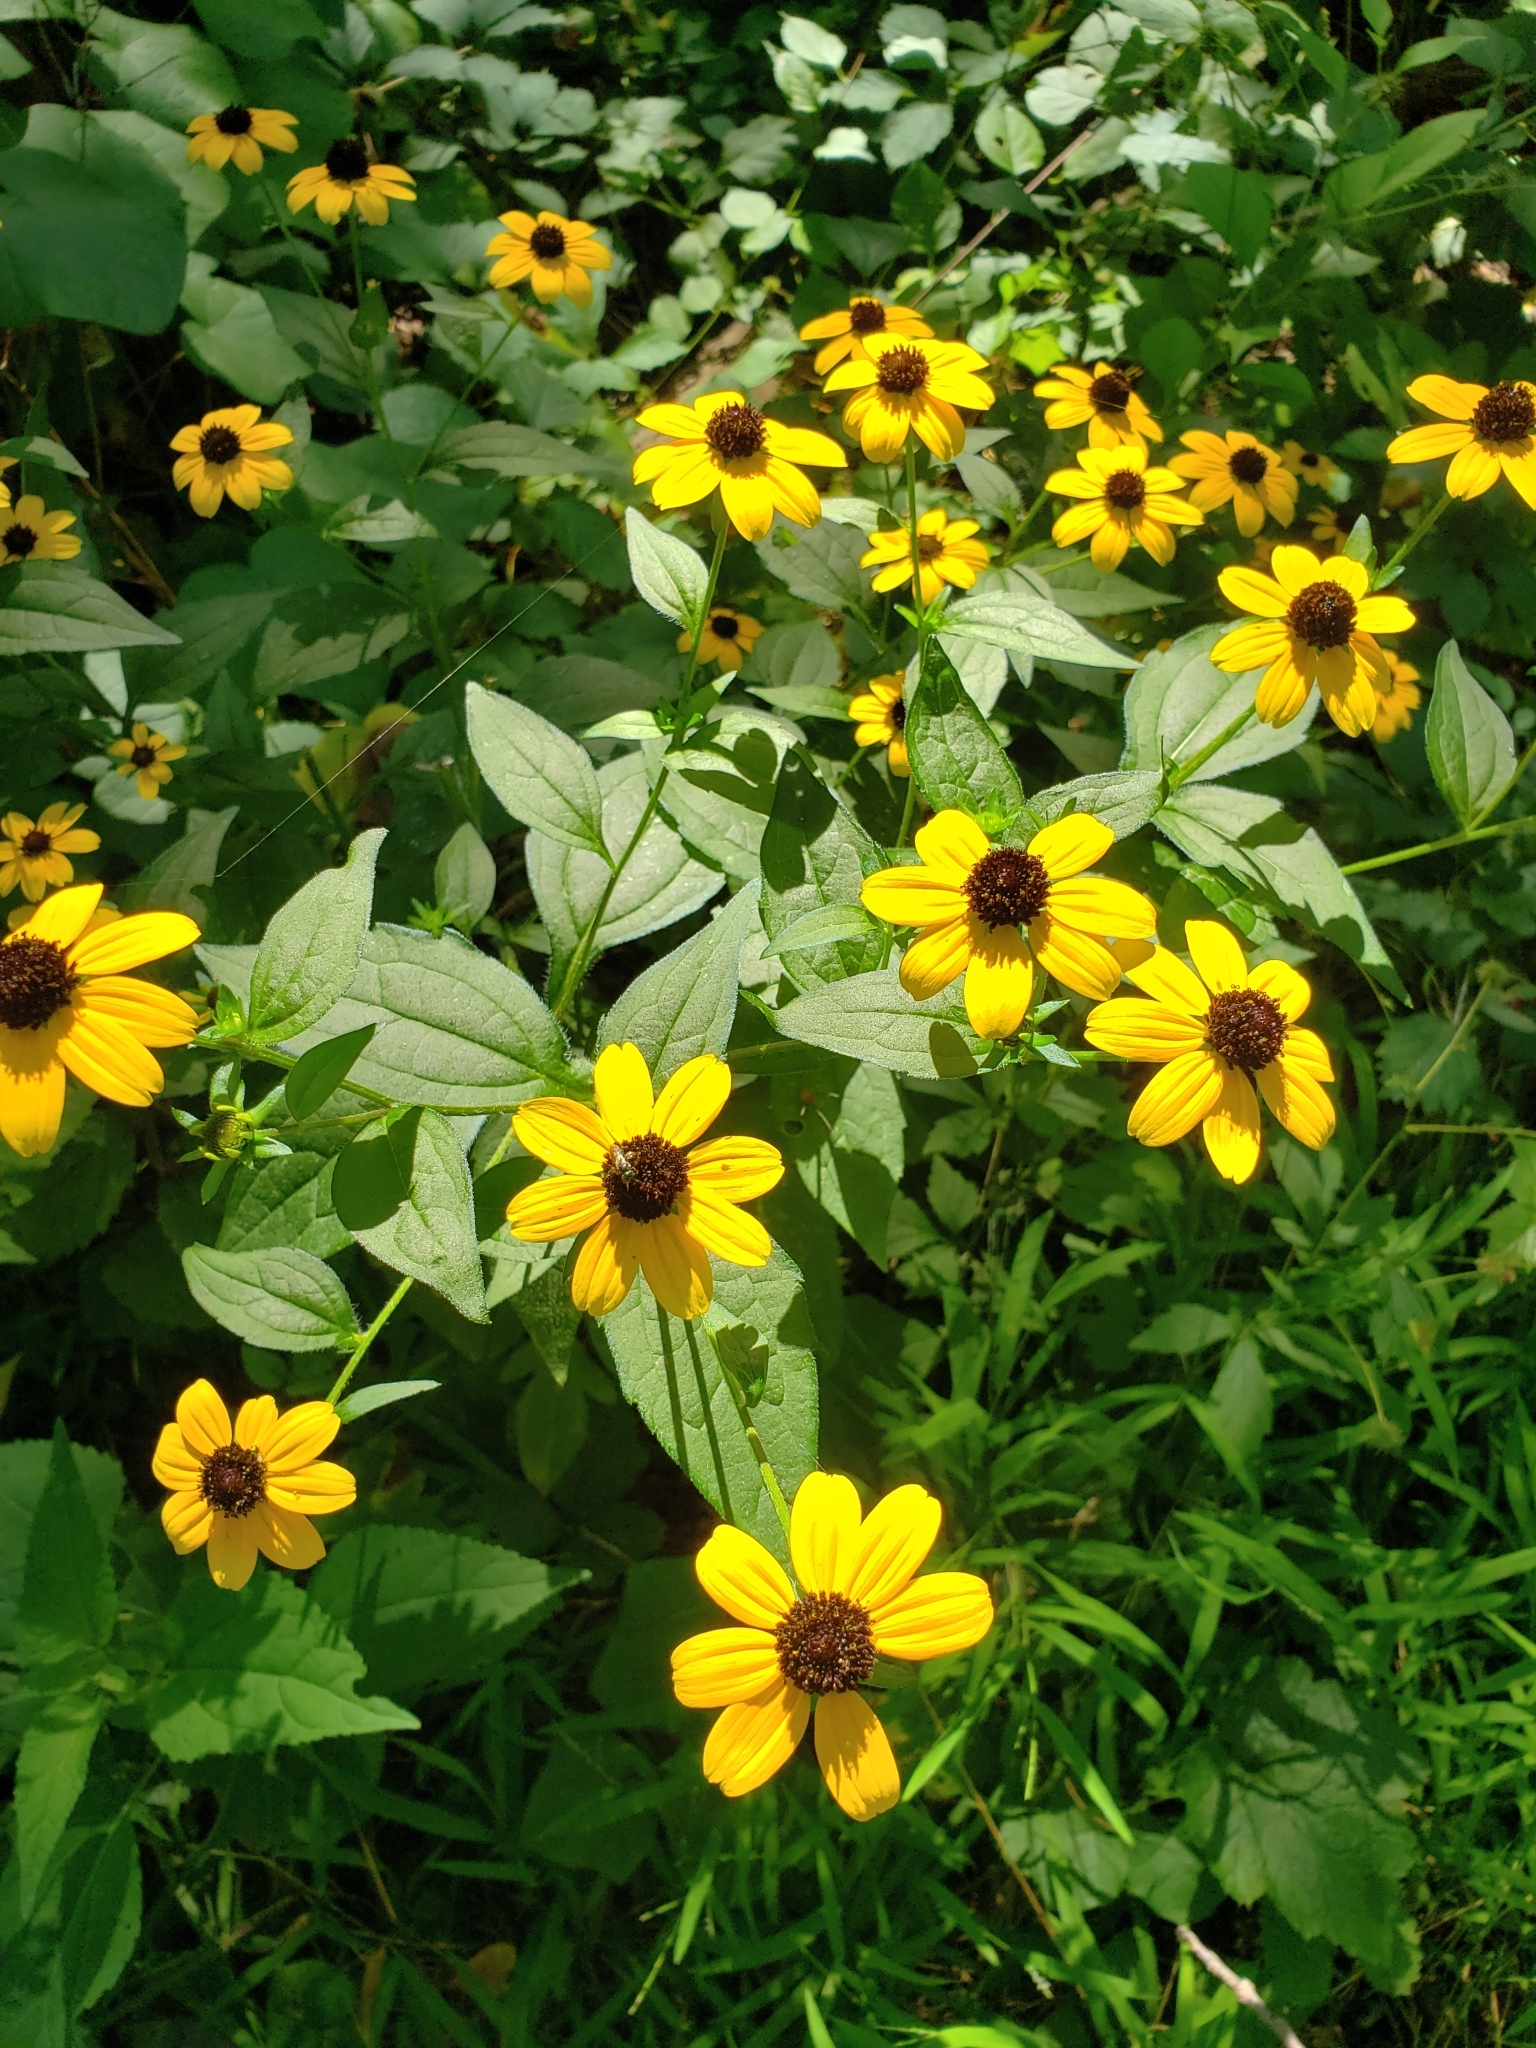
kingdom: Plantae
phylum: Tracheophyta
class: Magnoliopsida
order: Asterales
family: Asteraceae
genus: Rudbeckia
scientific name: Rudbeckia triloba
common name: Thin-leaved coneflower
